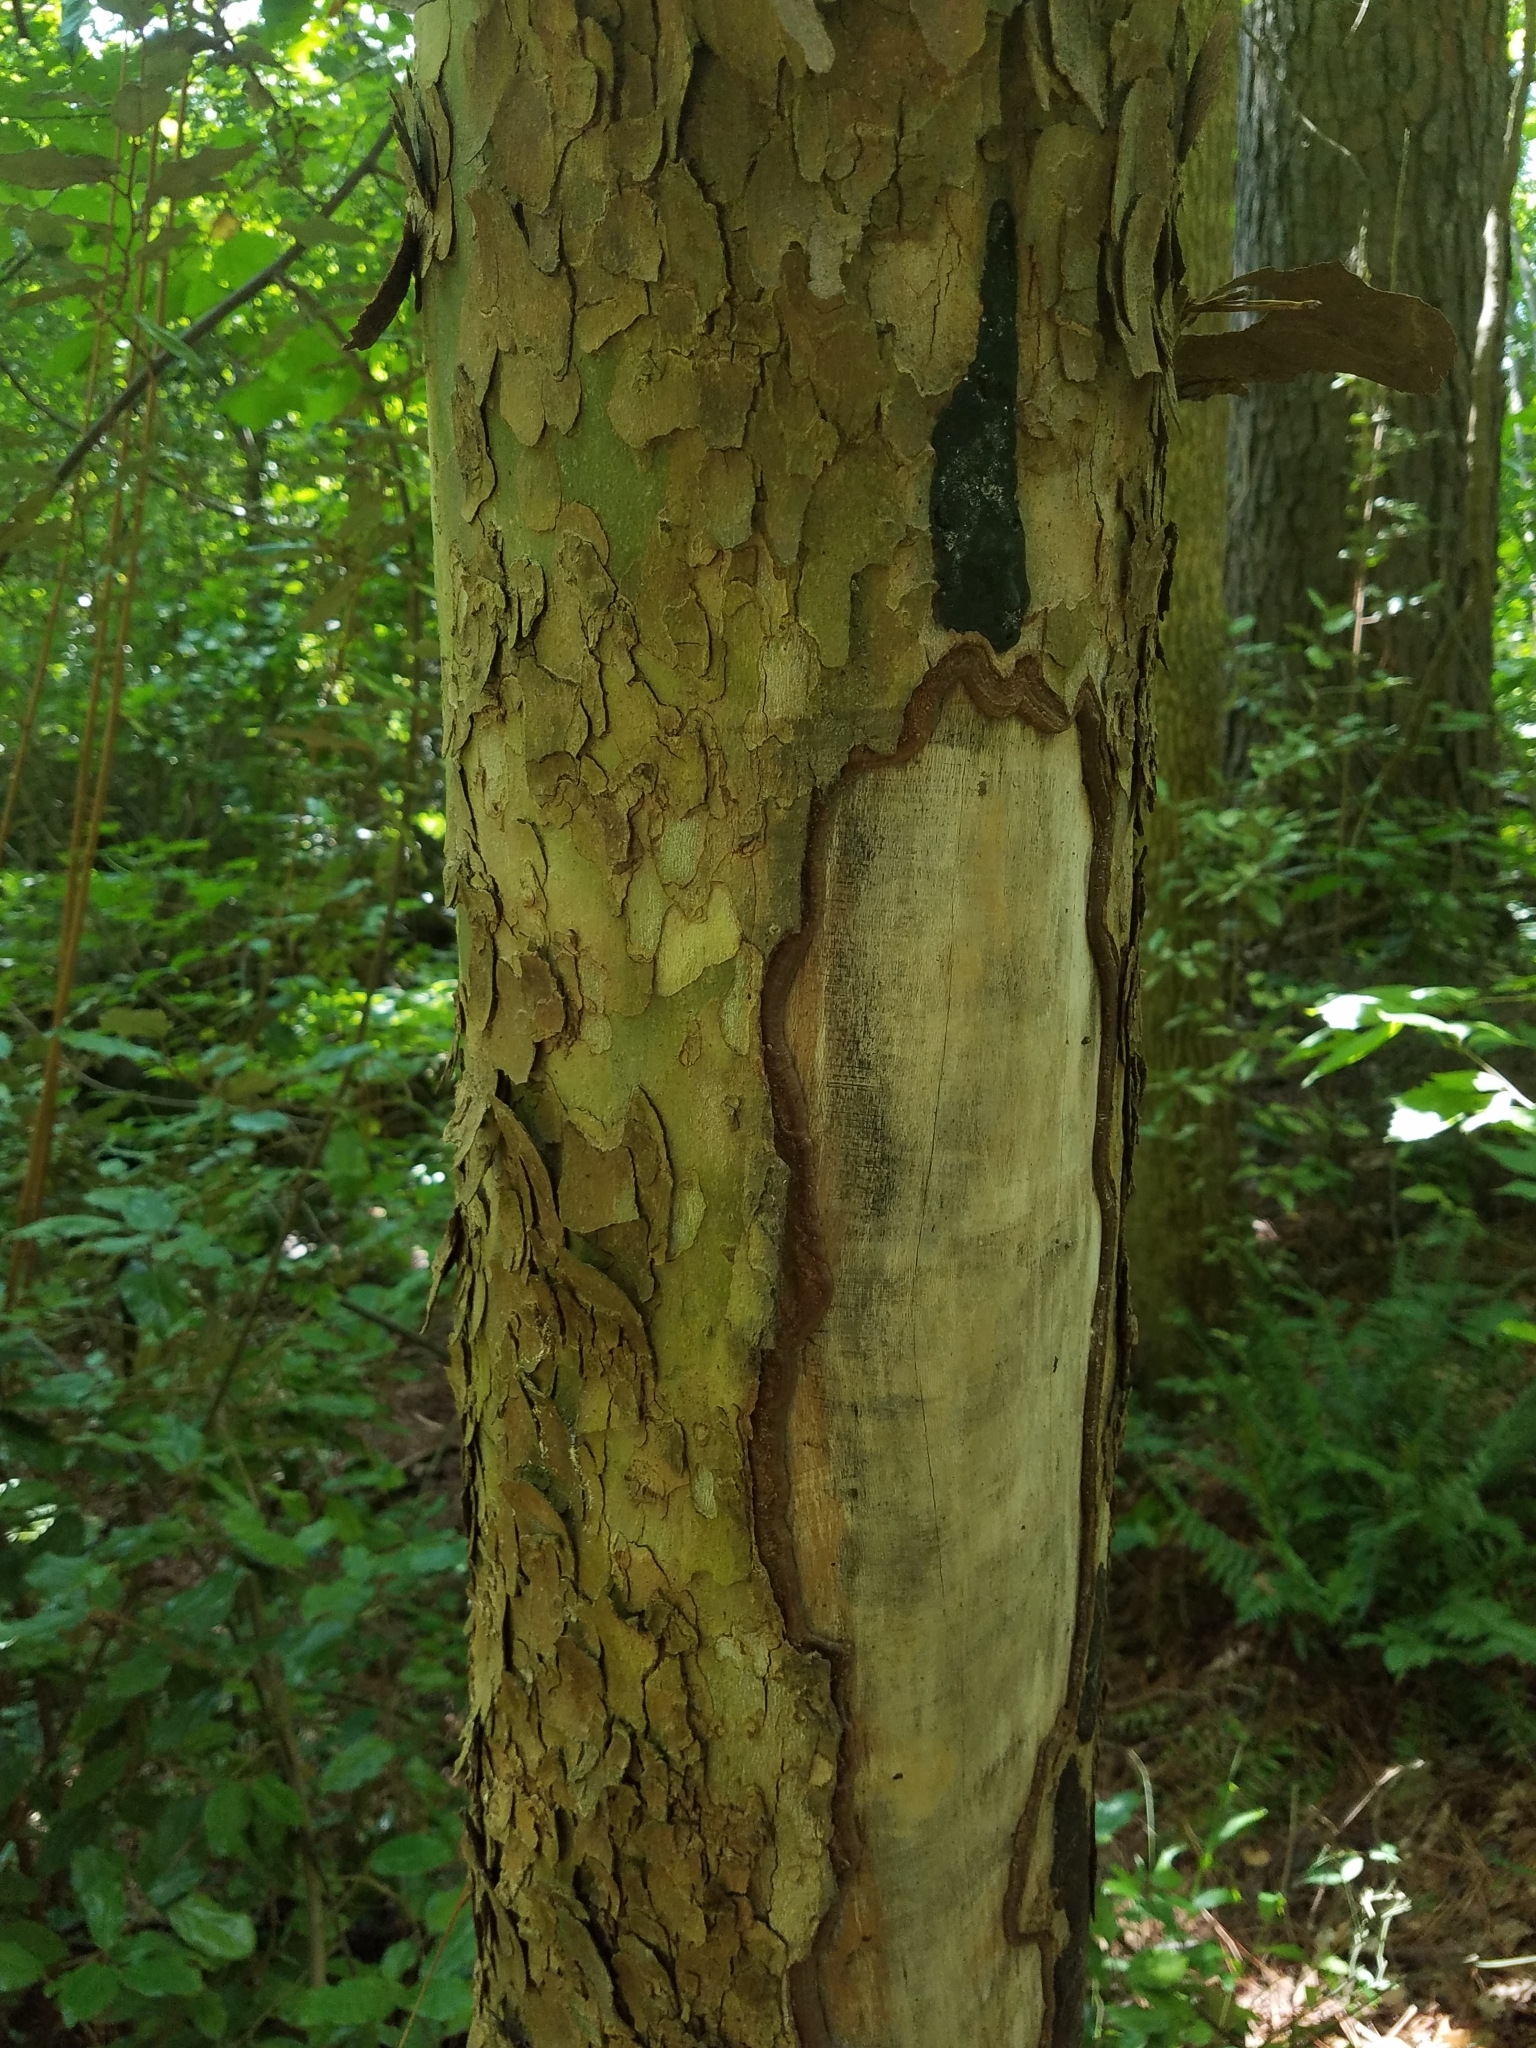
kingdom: Plantae
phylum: Tracheophyta
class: Magnoliopsida
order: Proteales
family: Platanaceae
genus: Platanus
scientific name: Platanus occidentalis
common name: American sycamore
